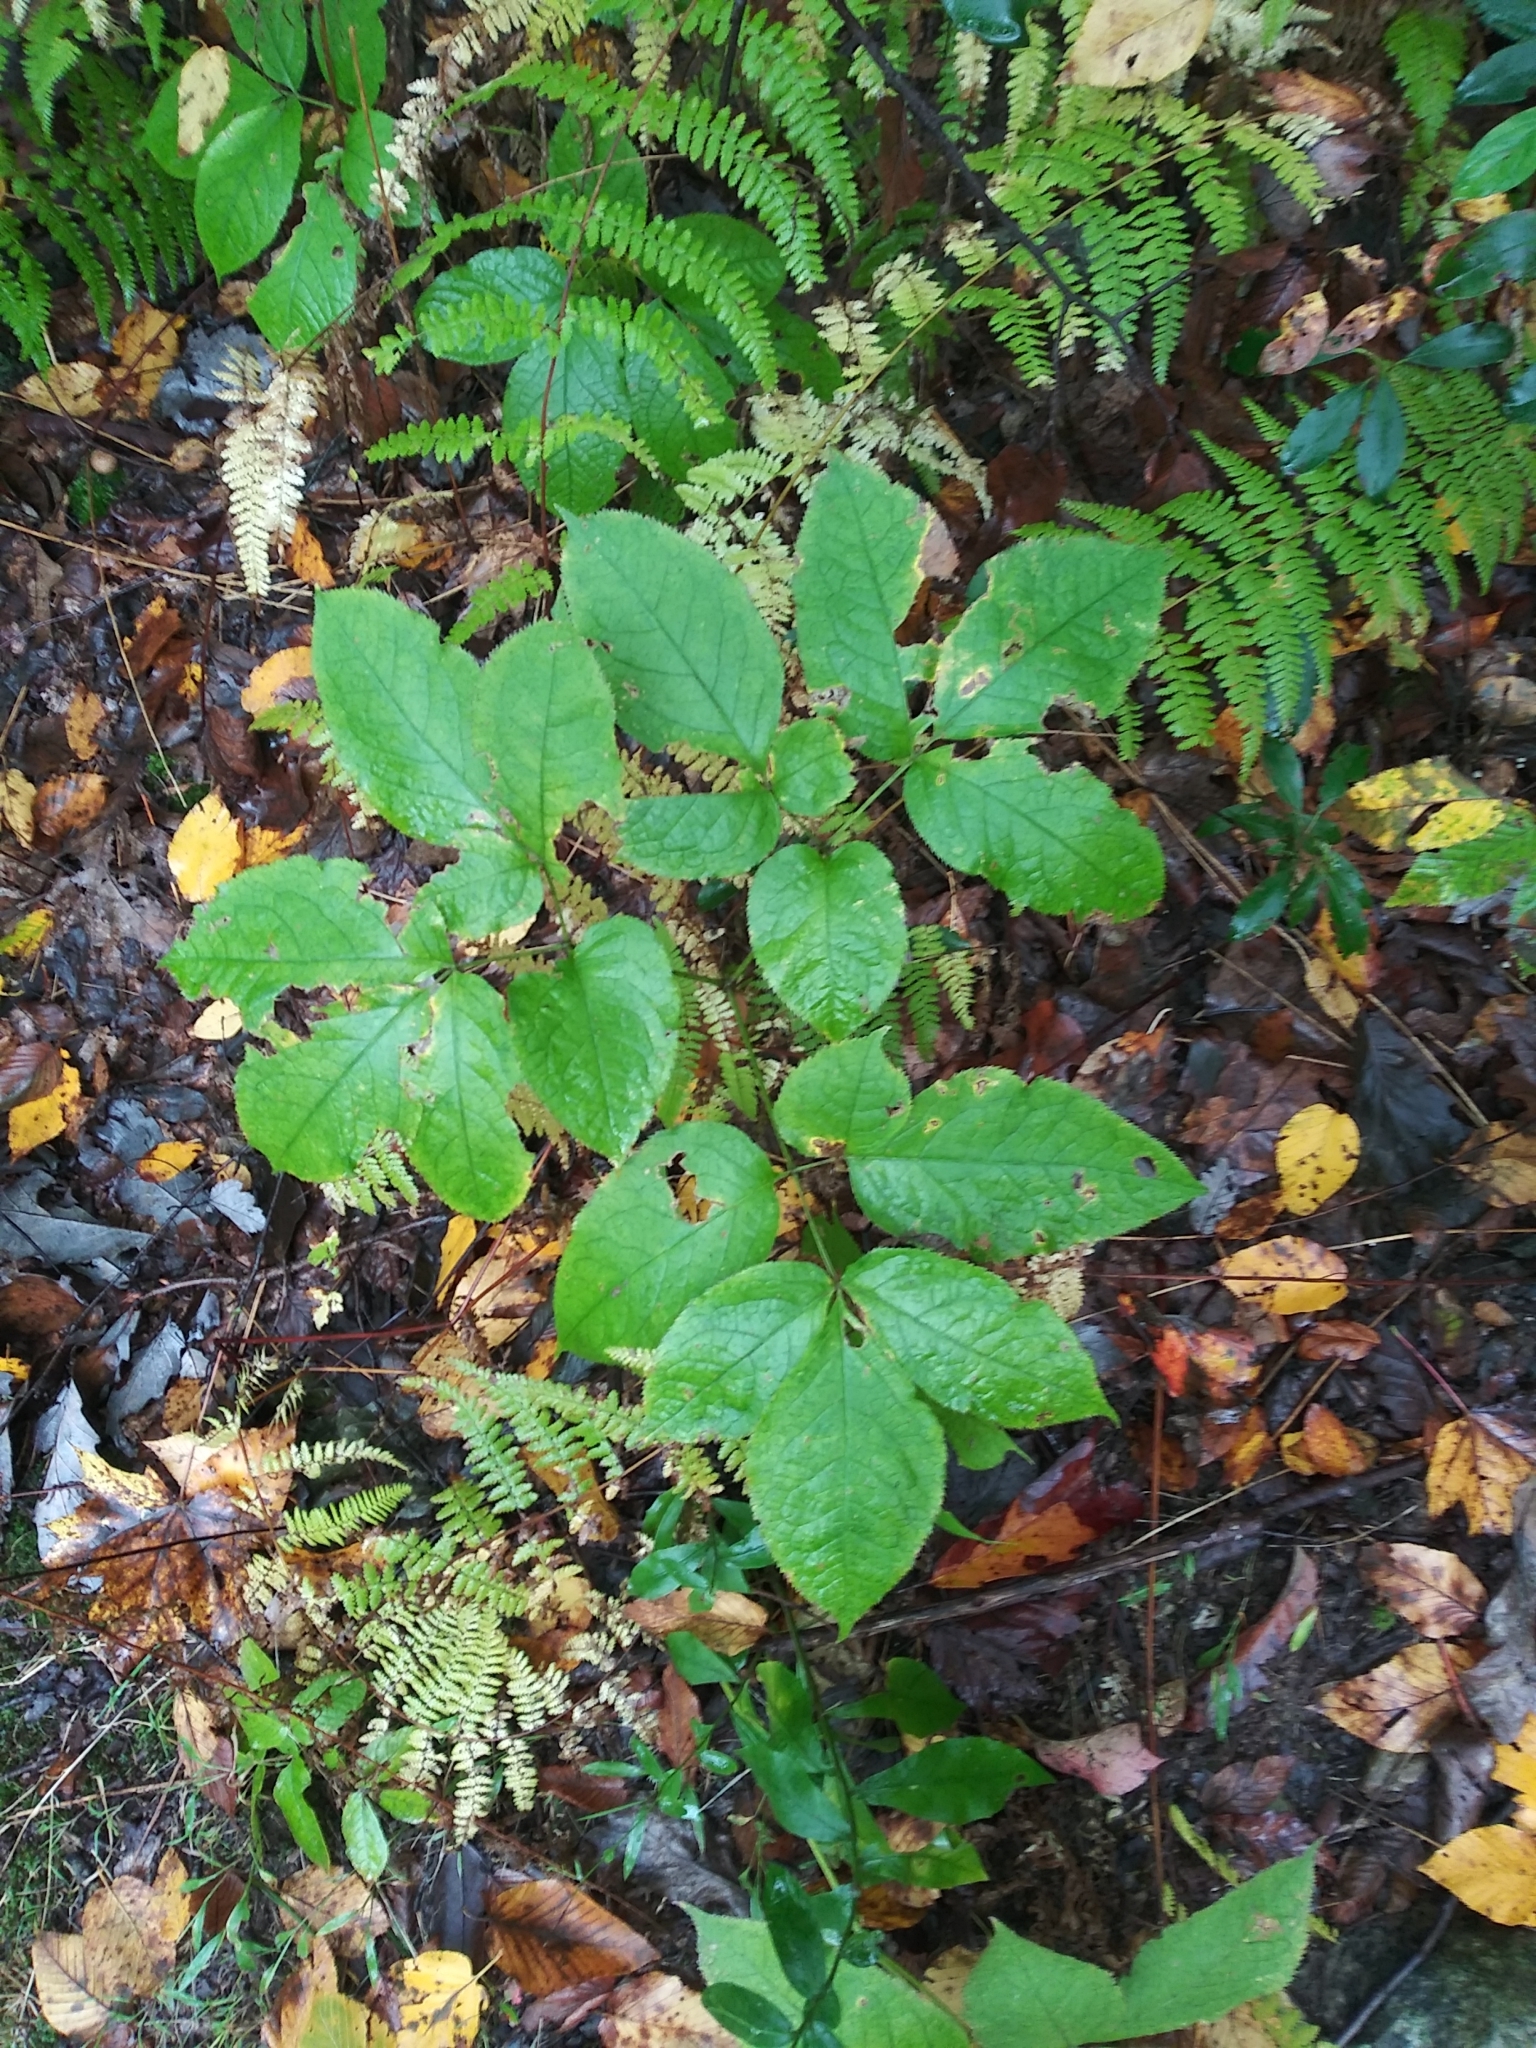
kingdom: Plantae
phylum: Tracheophyta
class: Magnoliopsida
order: Apiales
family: Araliaceae
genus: Aralia
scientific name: Aralia nudicaulis
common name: Wild sarsaparilla
